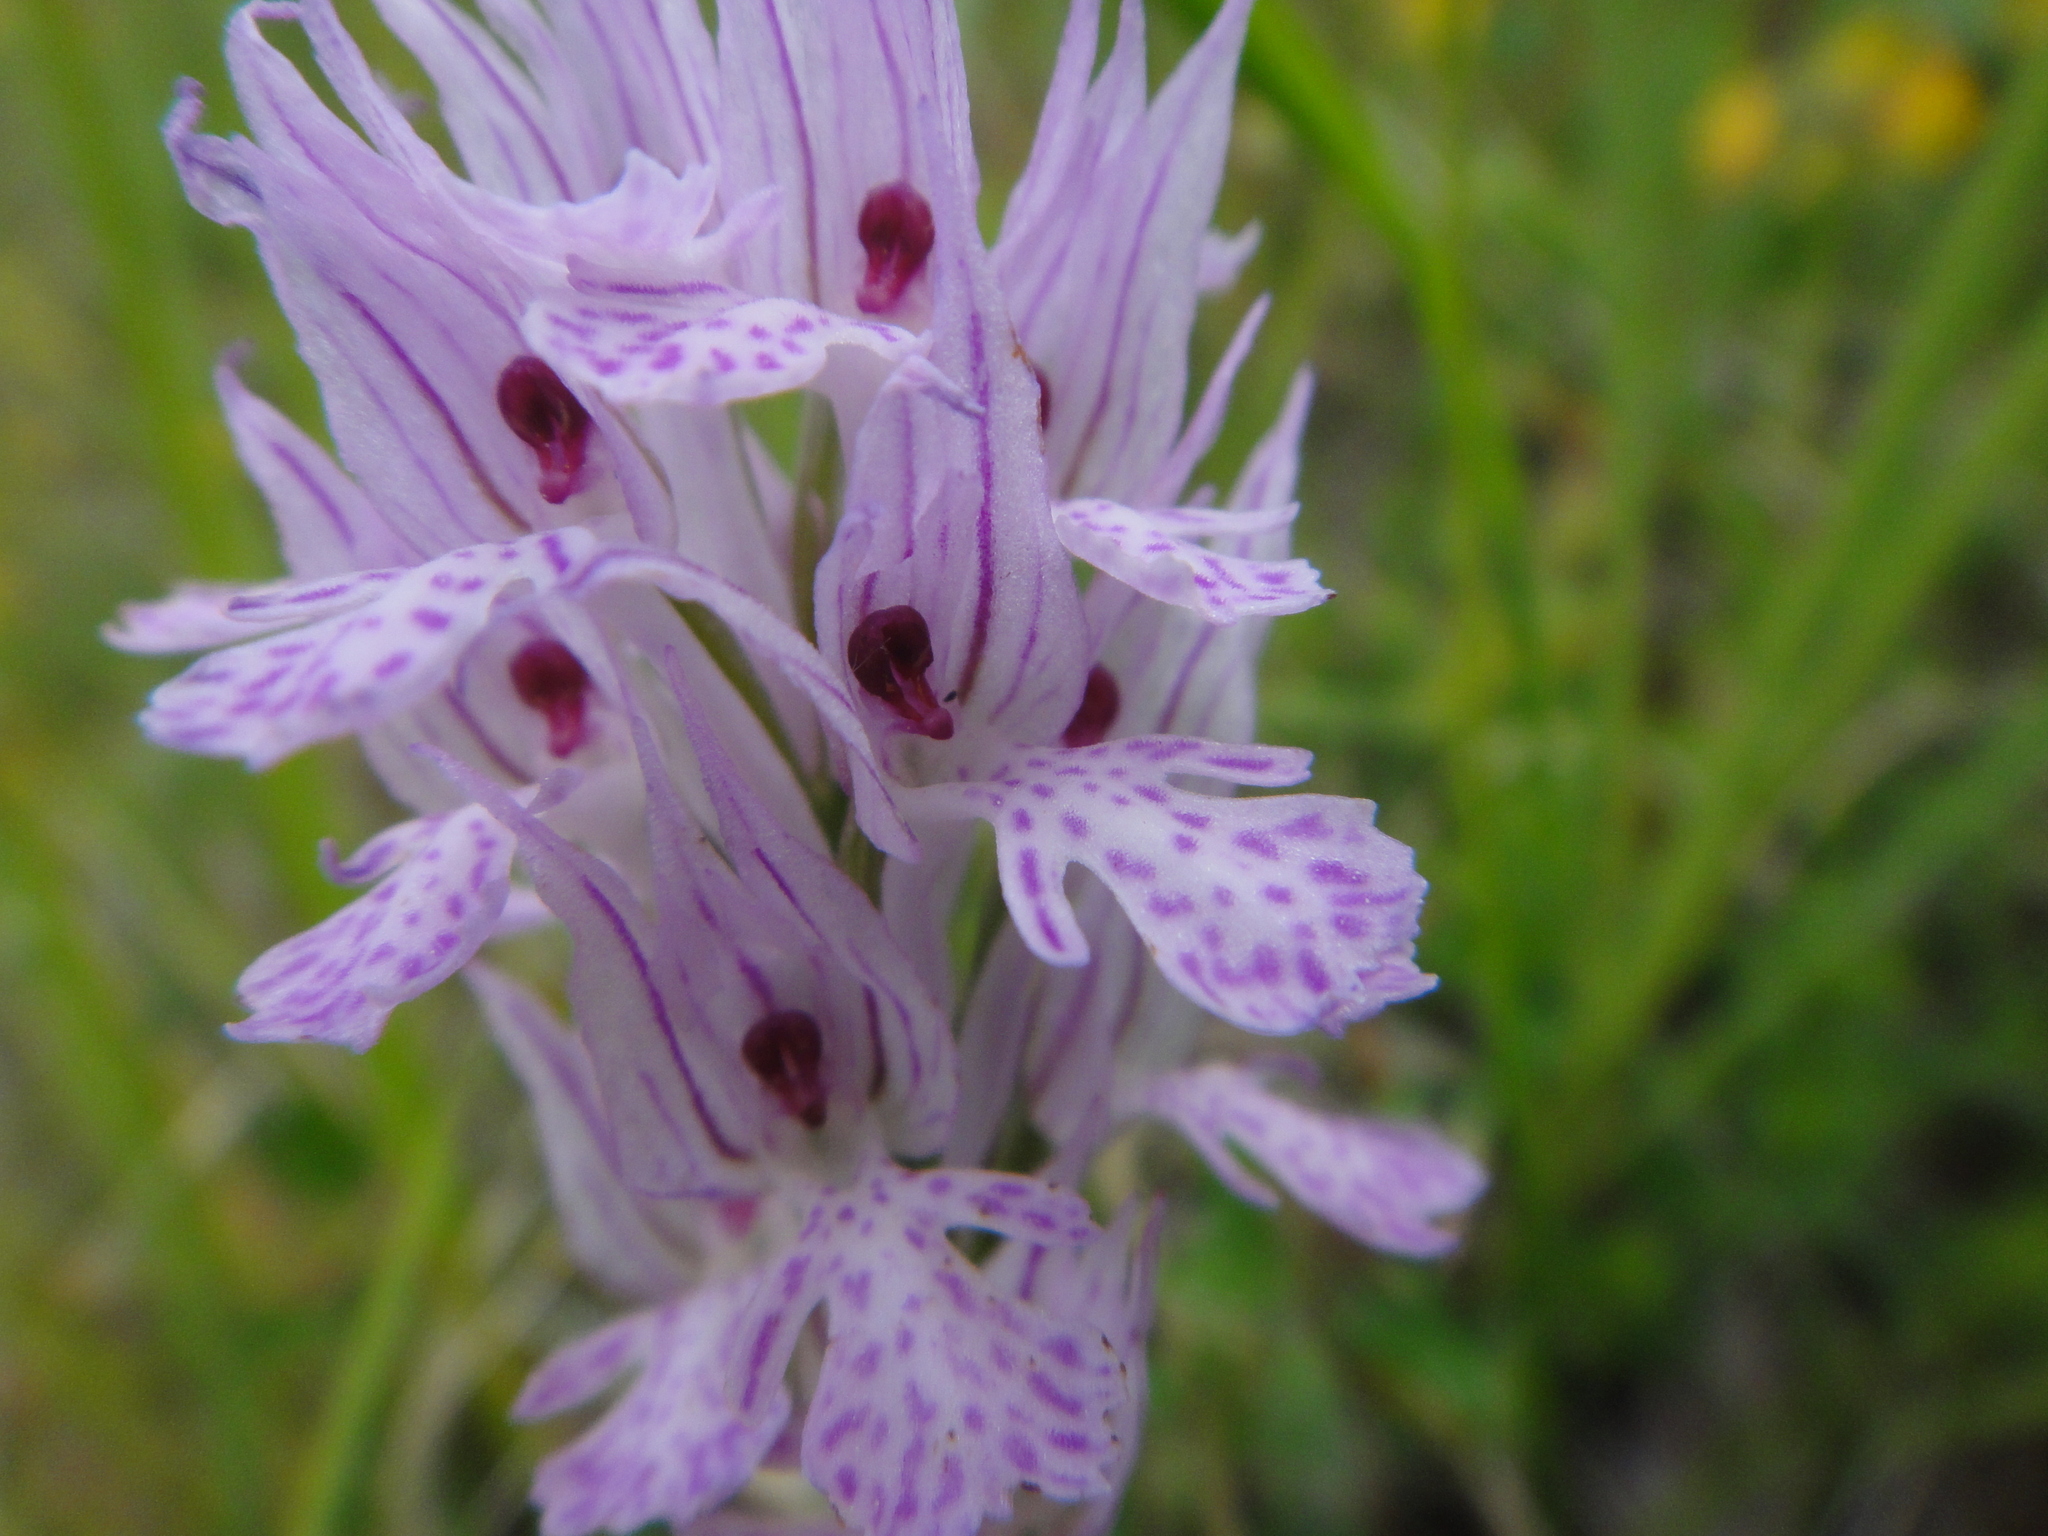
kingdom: Plantae
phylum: Tracheophyta
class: Liliopsida
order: Asparagales
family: Orchidaceae
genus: Neotinea
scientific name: Neotinea tridentata
